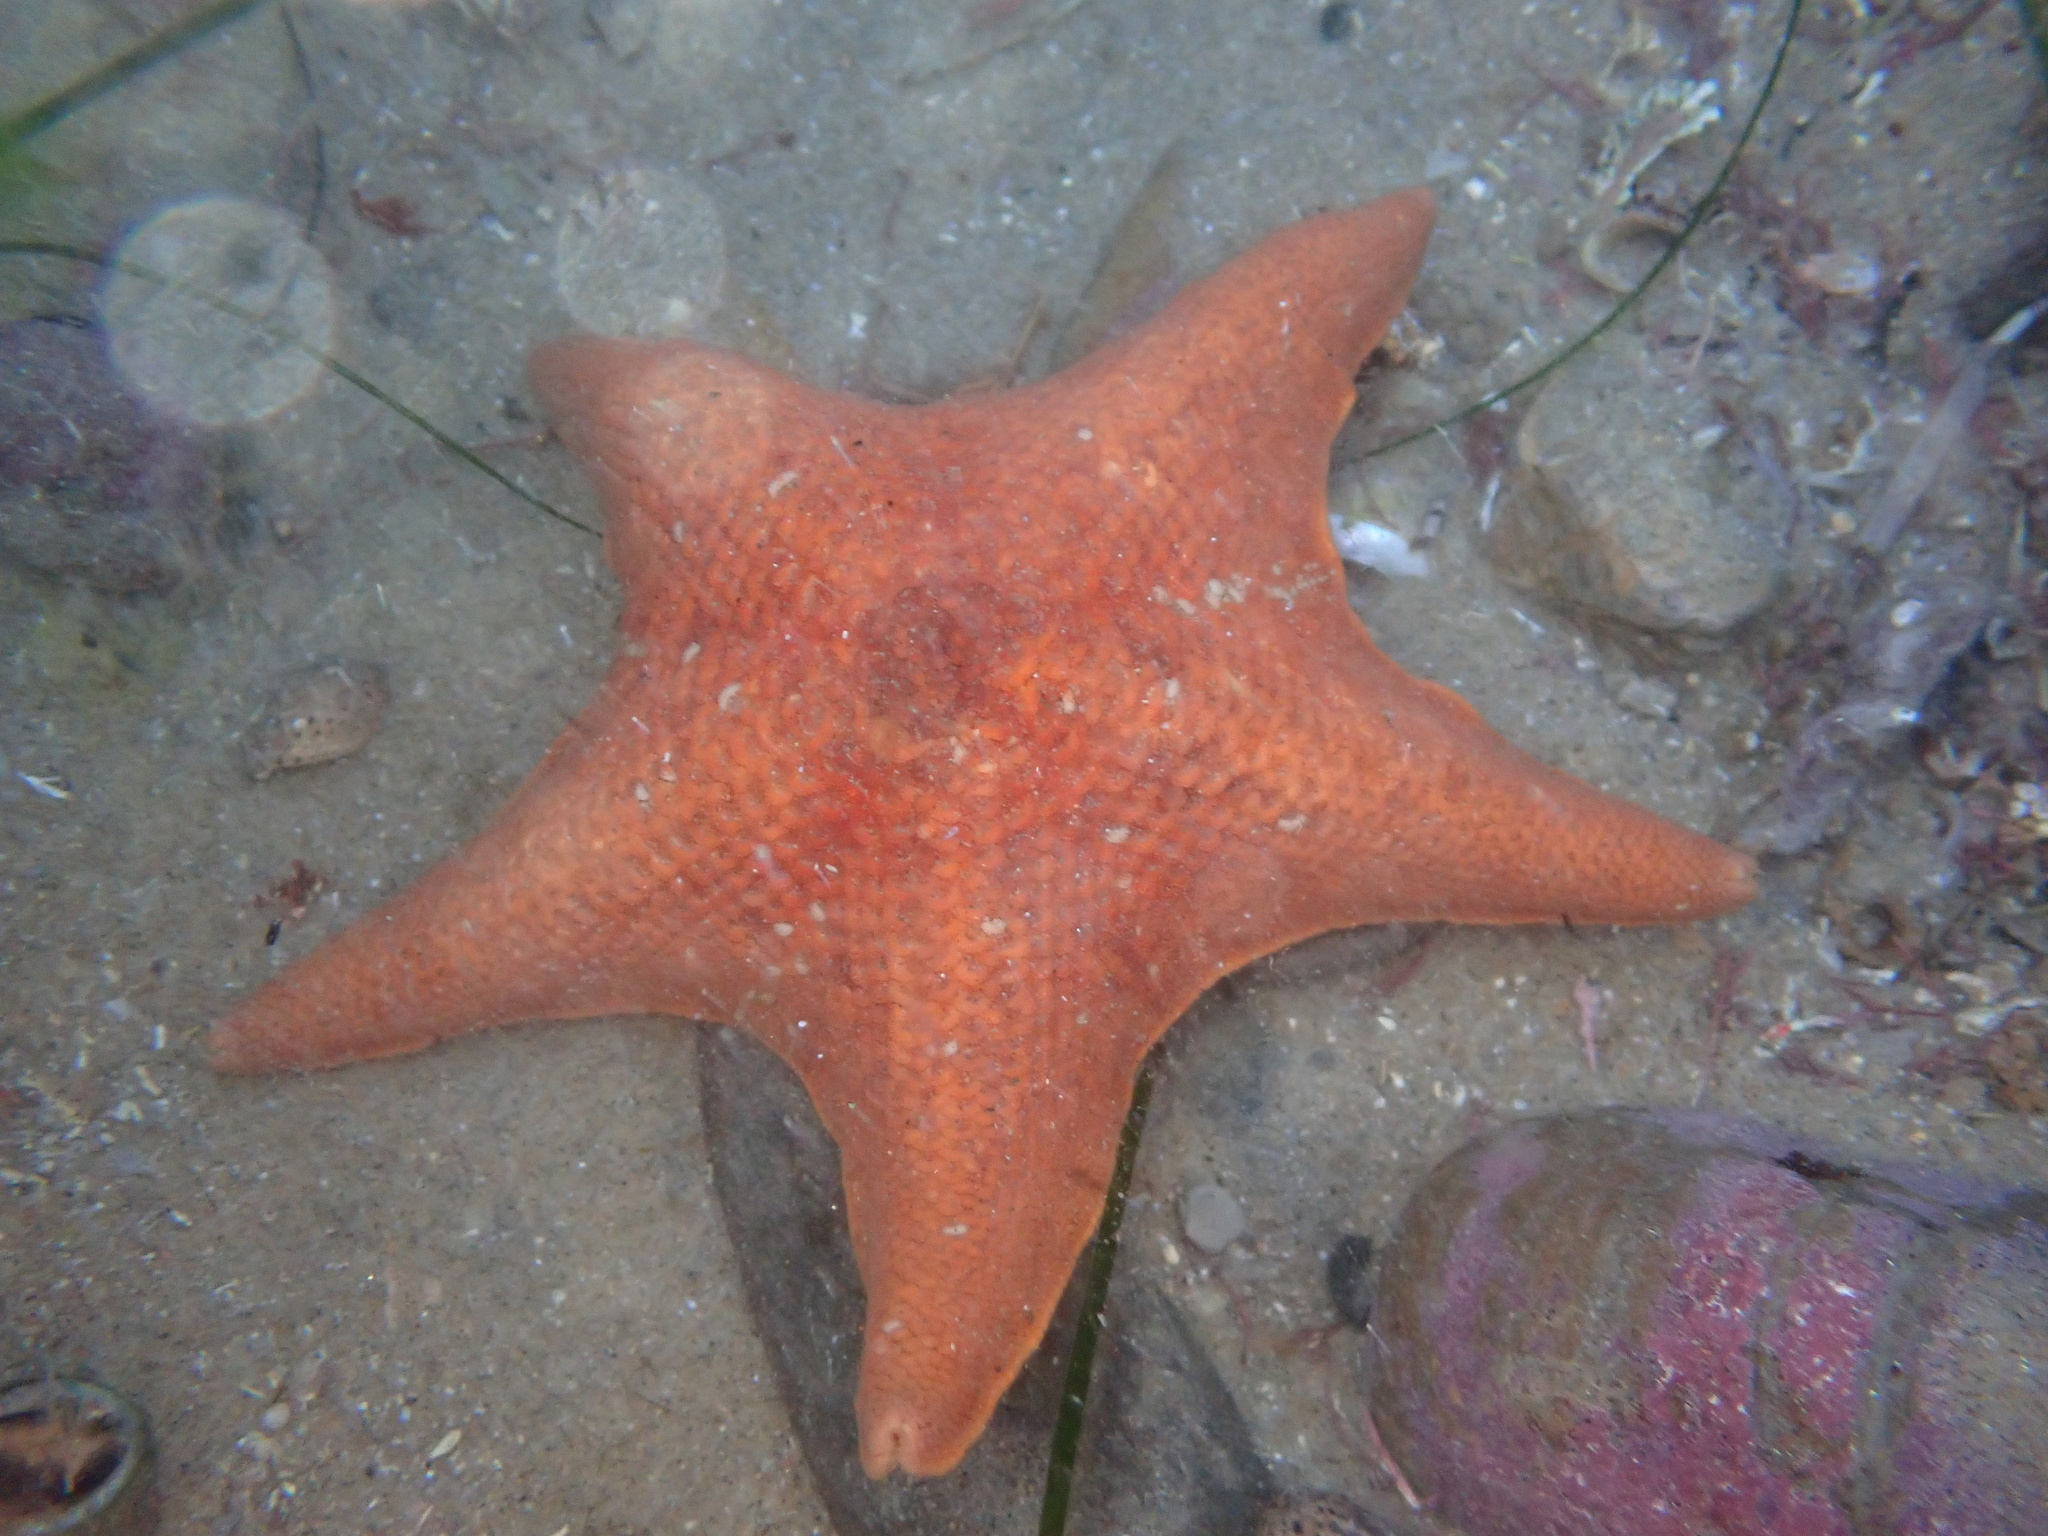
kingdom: Animalia
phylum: Echinodermata
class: Asteroidea
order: Valvatida
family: Asterinidae
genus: Patiria
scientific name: Patiria miniata
